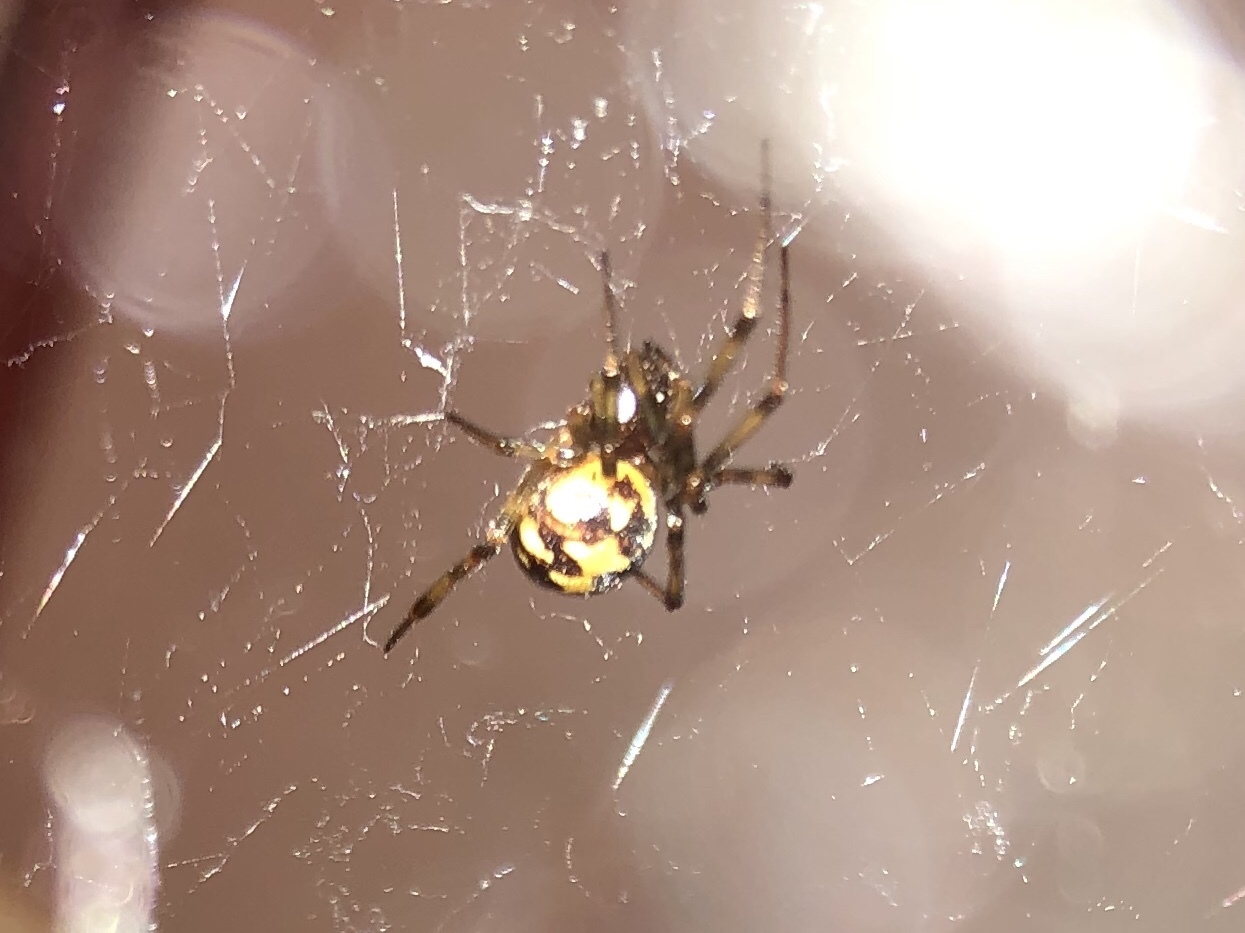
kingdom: Animalia
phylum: Arthropoda
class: Arachnida
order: Araneae
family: Theridiidae
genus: Steatoda
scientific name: Steatoda triangulosa
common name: Triangulate bud spider
